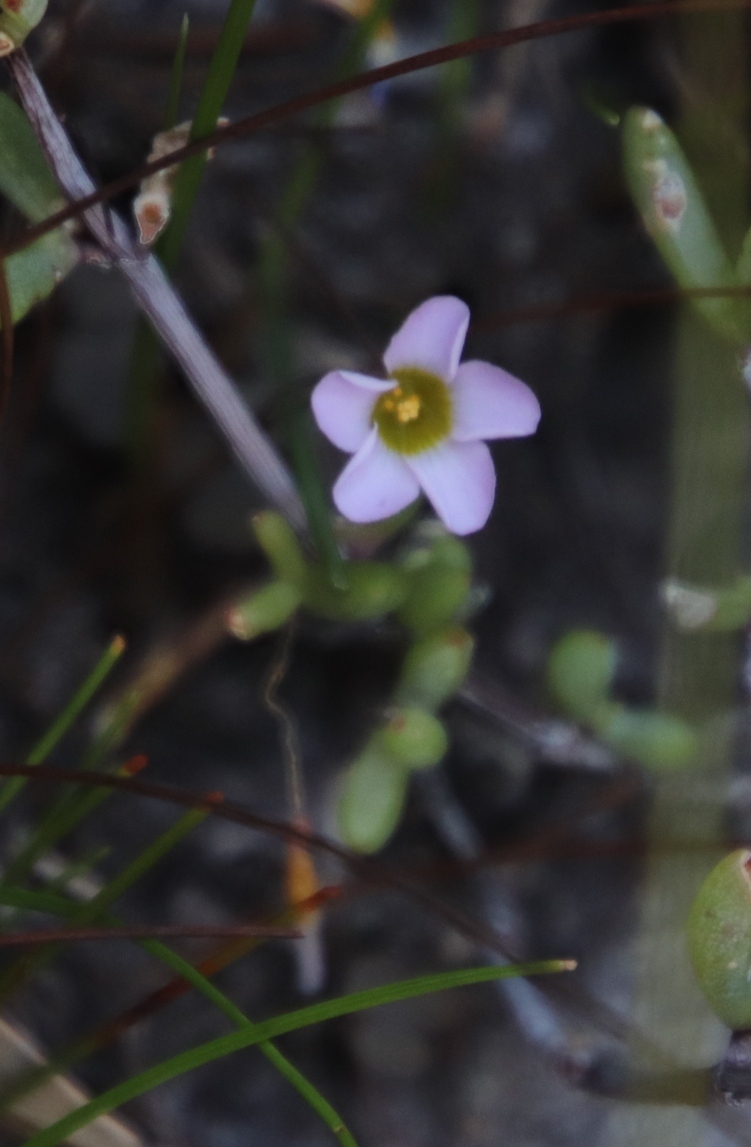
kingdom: Plantae
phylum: Tracheophyta
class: Magnoliopsida
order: Oxalidales
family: Oxalidaceae
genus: Oxalis
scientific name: Oxalis punctata
